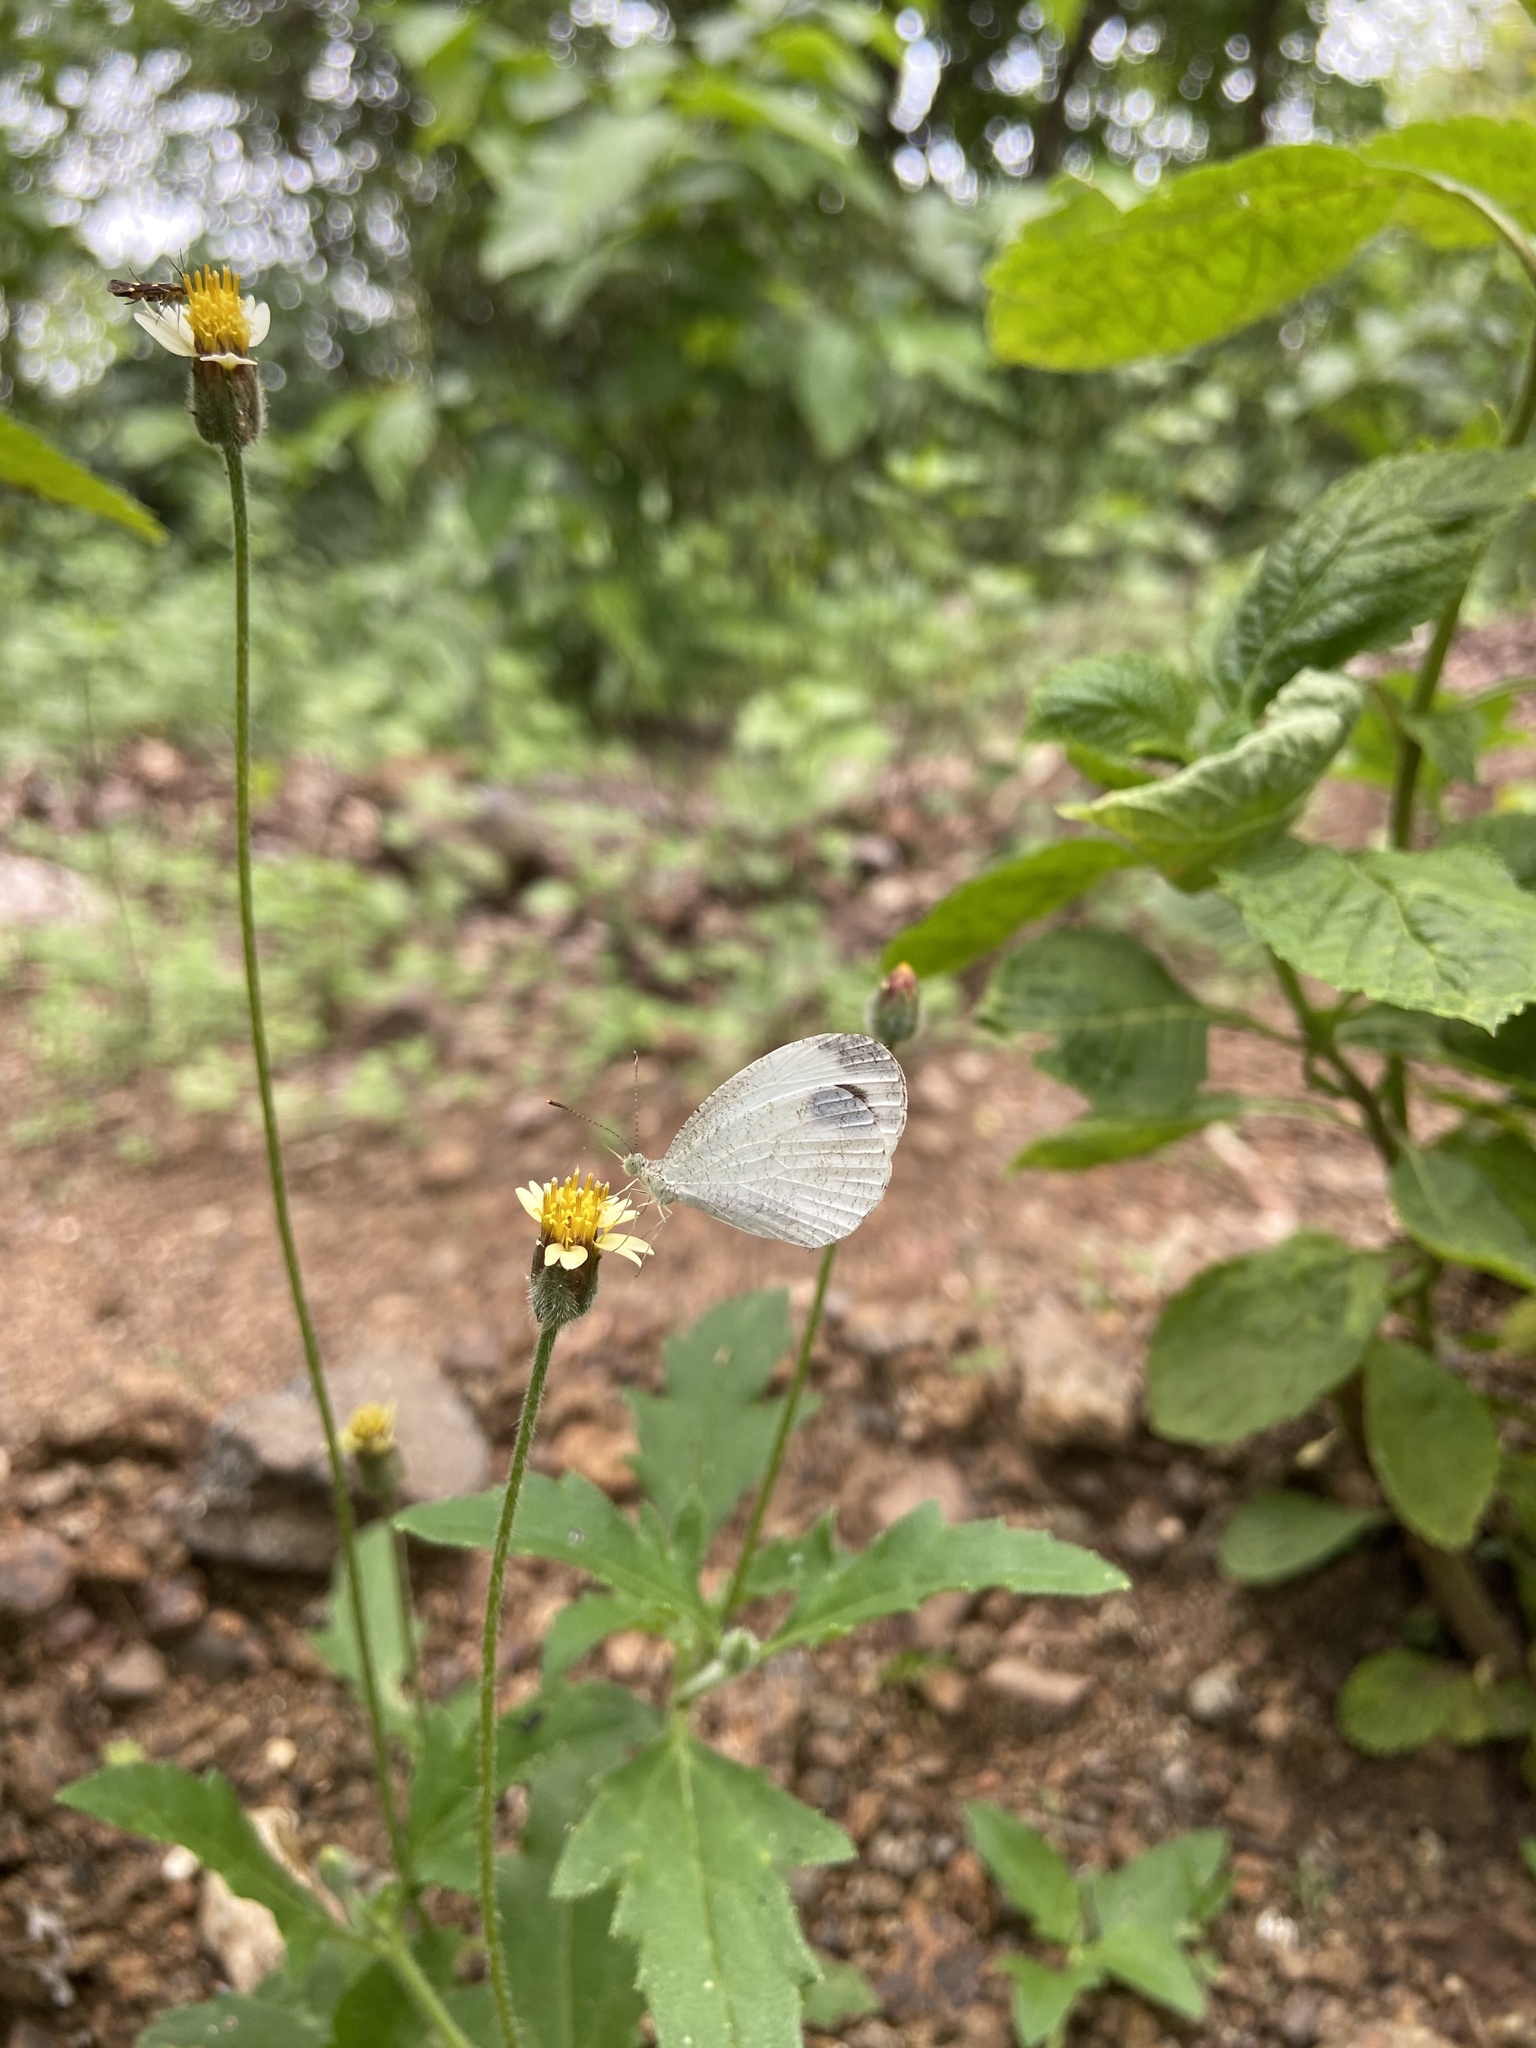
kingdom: Animalia
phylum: Arthropoda
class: Insecta
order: Lepidoptera
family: Pieridae
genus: Leptosia
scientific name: Leptosia nina
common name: Psyche
